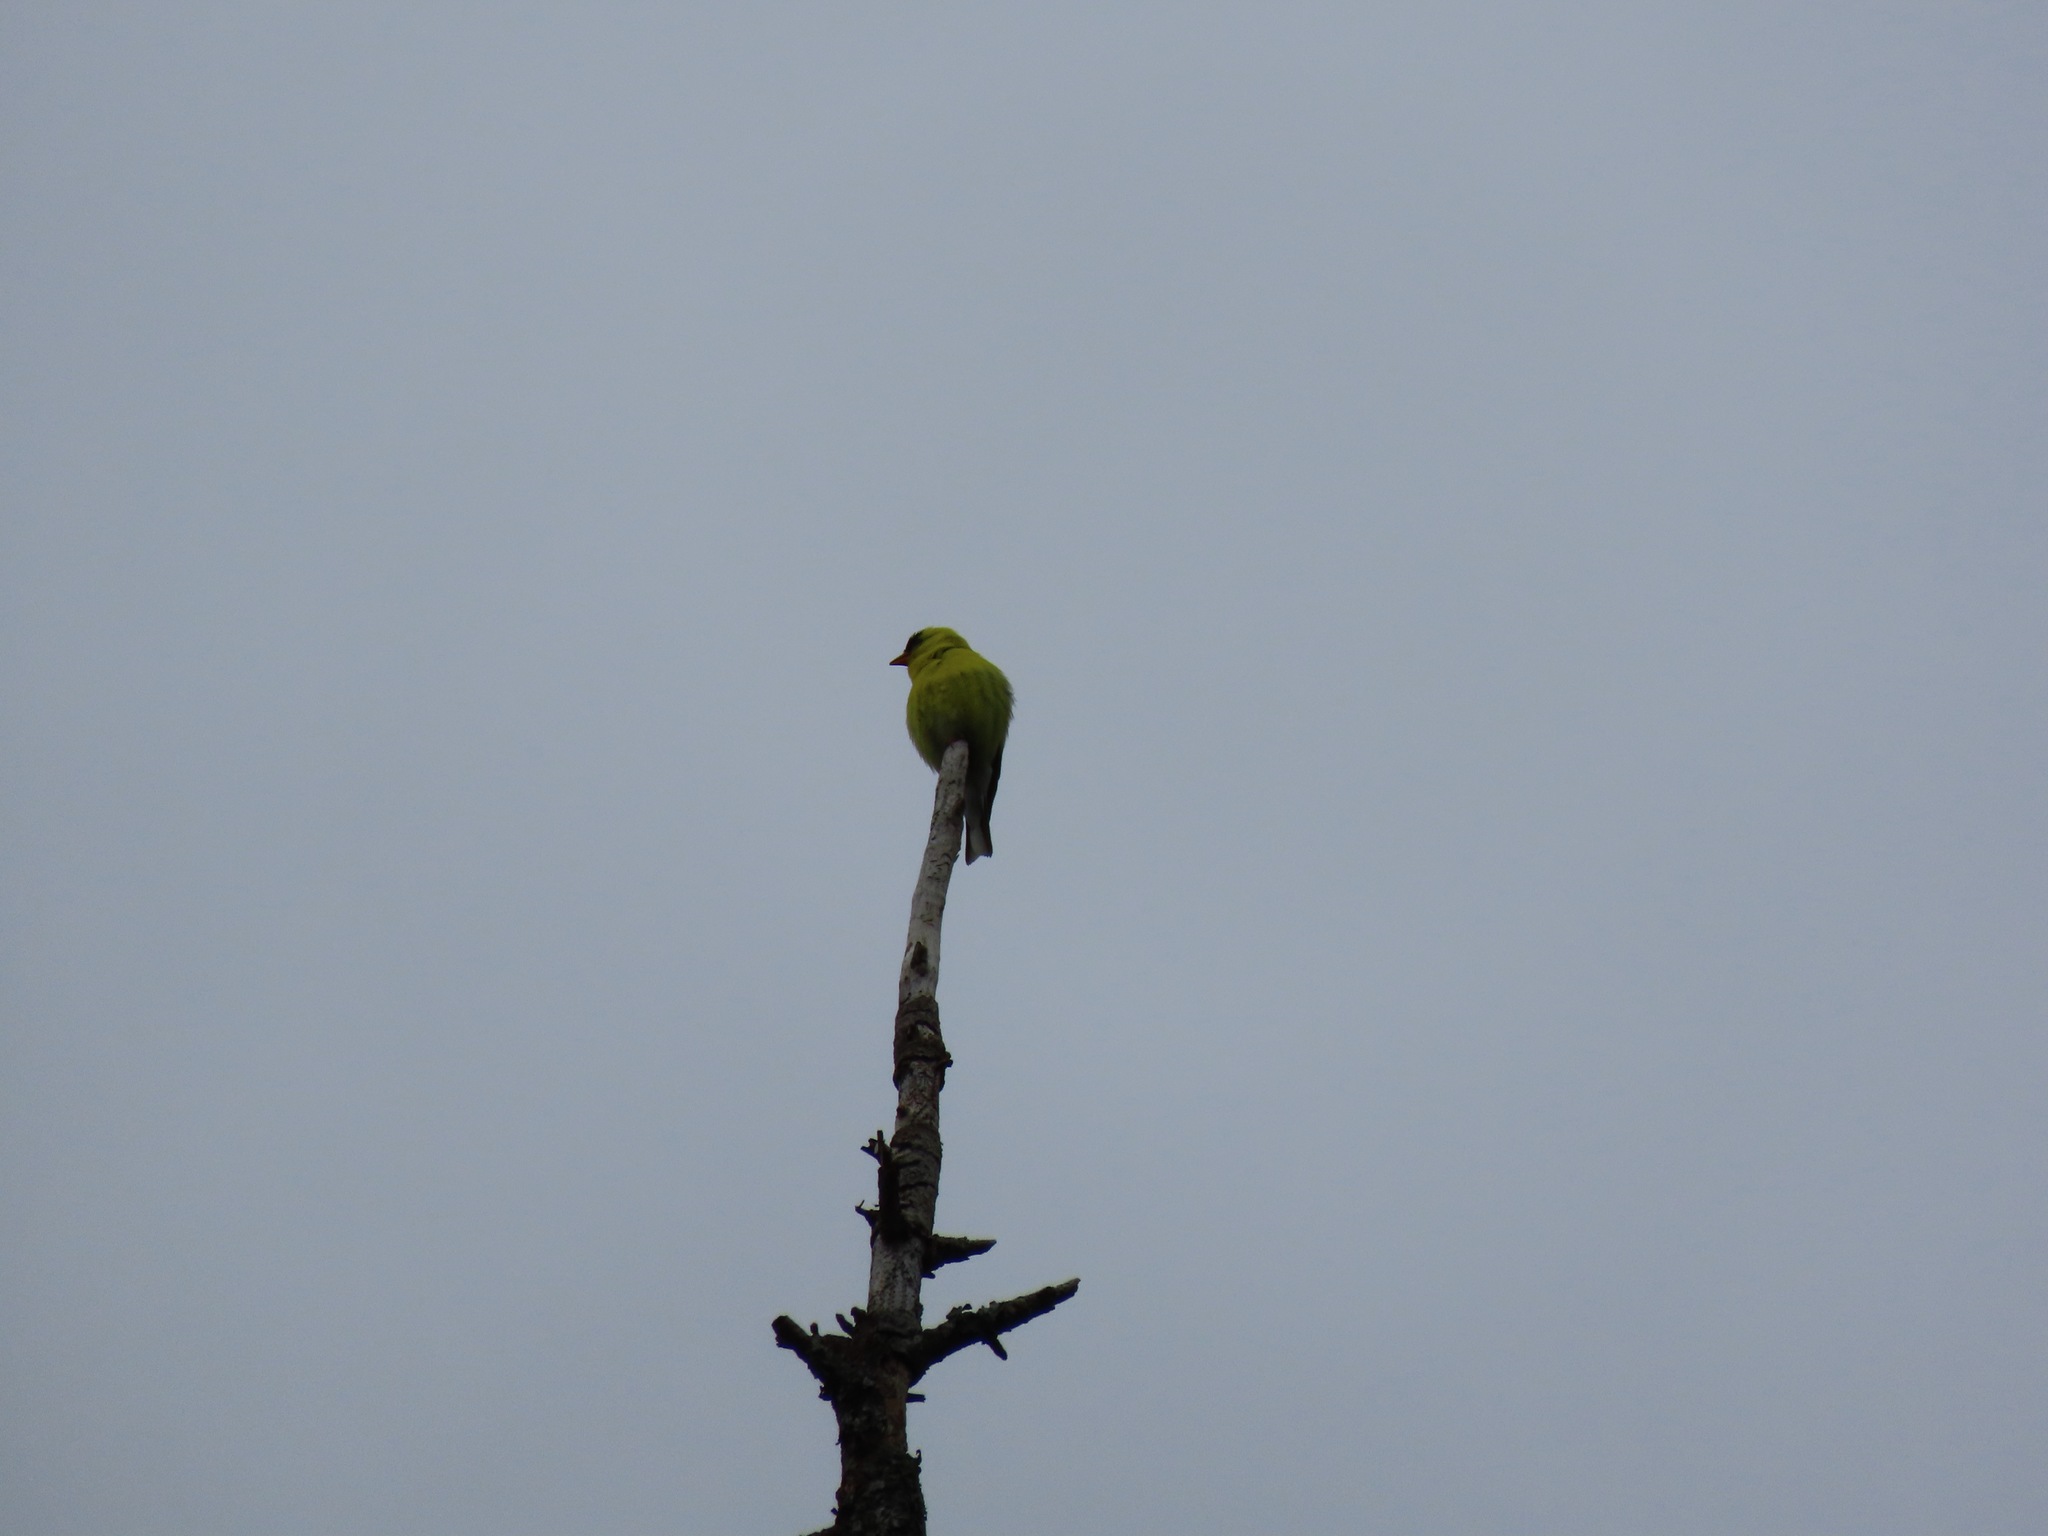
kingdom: Animalia
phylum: Chordata
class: Aves
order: Passeriformes
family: Fringillidae
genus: Spinus
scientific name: Spinus tristis
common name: American goldfinch
